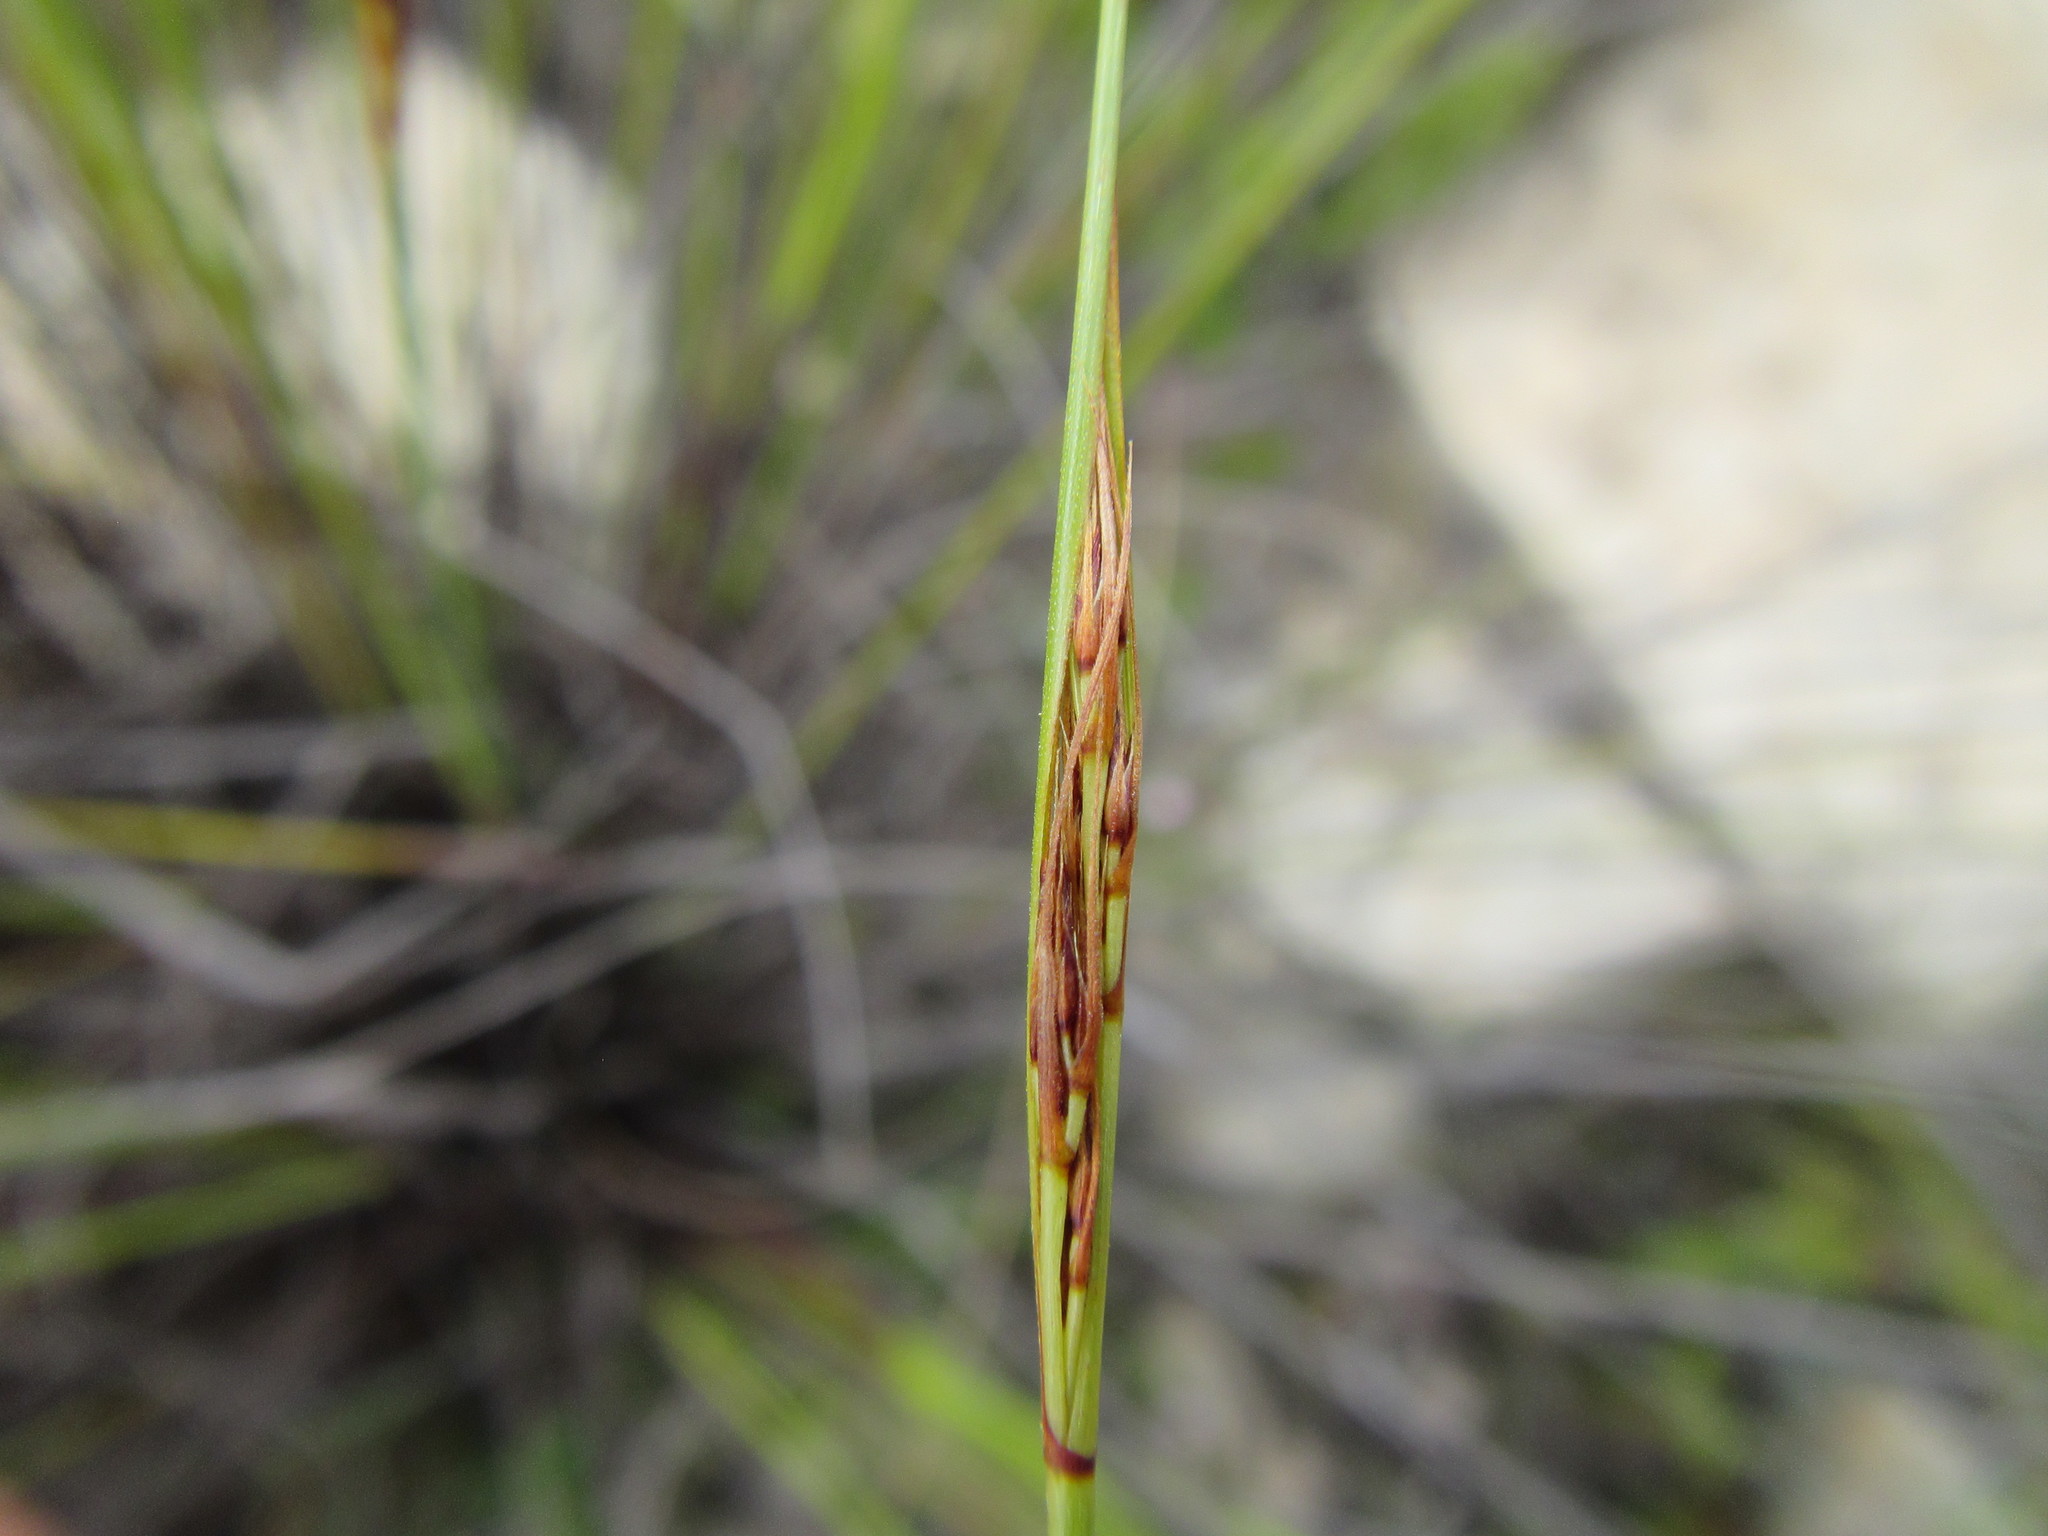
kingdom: Plantae
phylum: Tracheophyta
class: Liliopsida
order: Poales
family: Cyperaceae
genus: Schoenus
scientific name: Schoenus prophyllus
